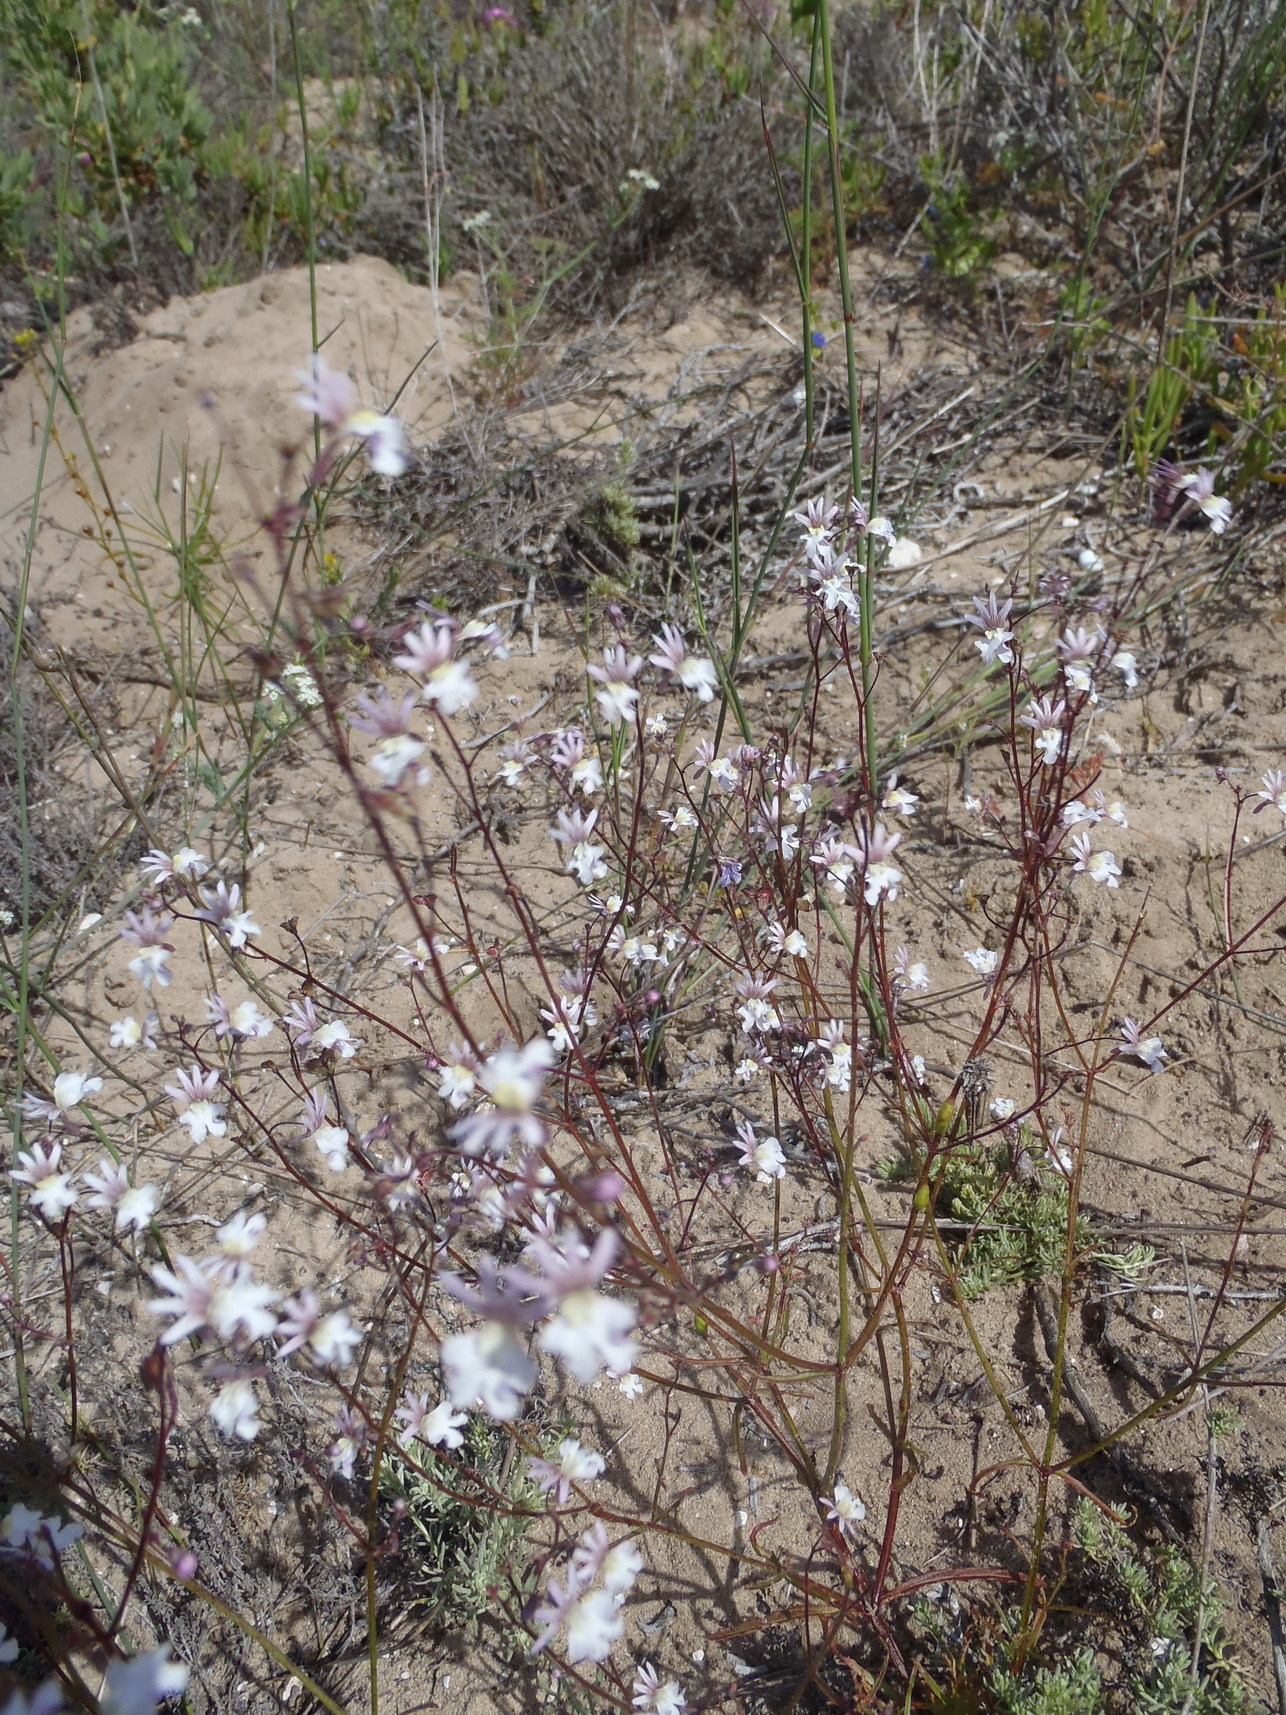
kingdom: Plantae
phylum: Tracheophyta
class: Magnoliopsida
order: Lamiales
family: Scrophulariaceae
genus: Nemesia
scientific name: Nemesia bicornis
